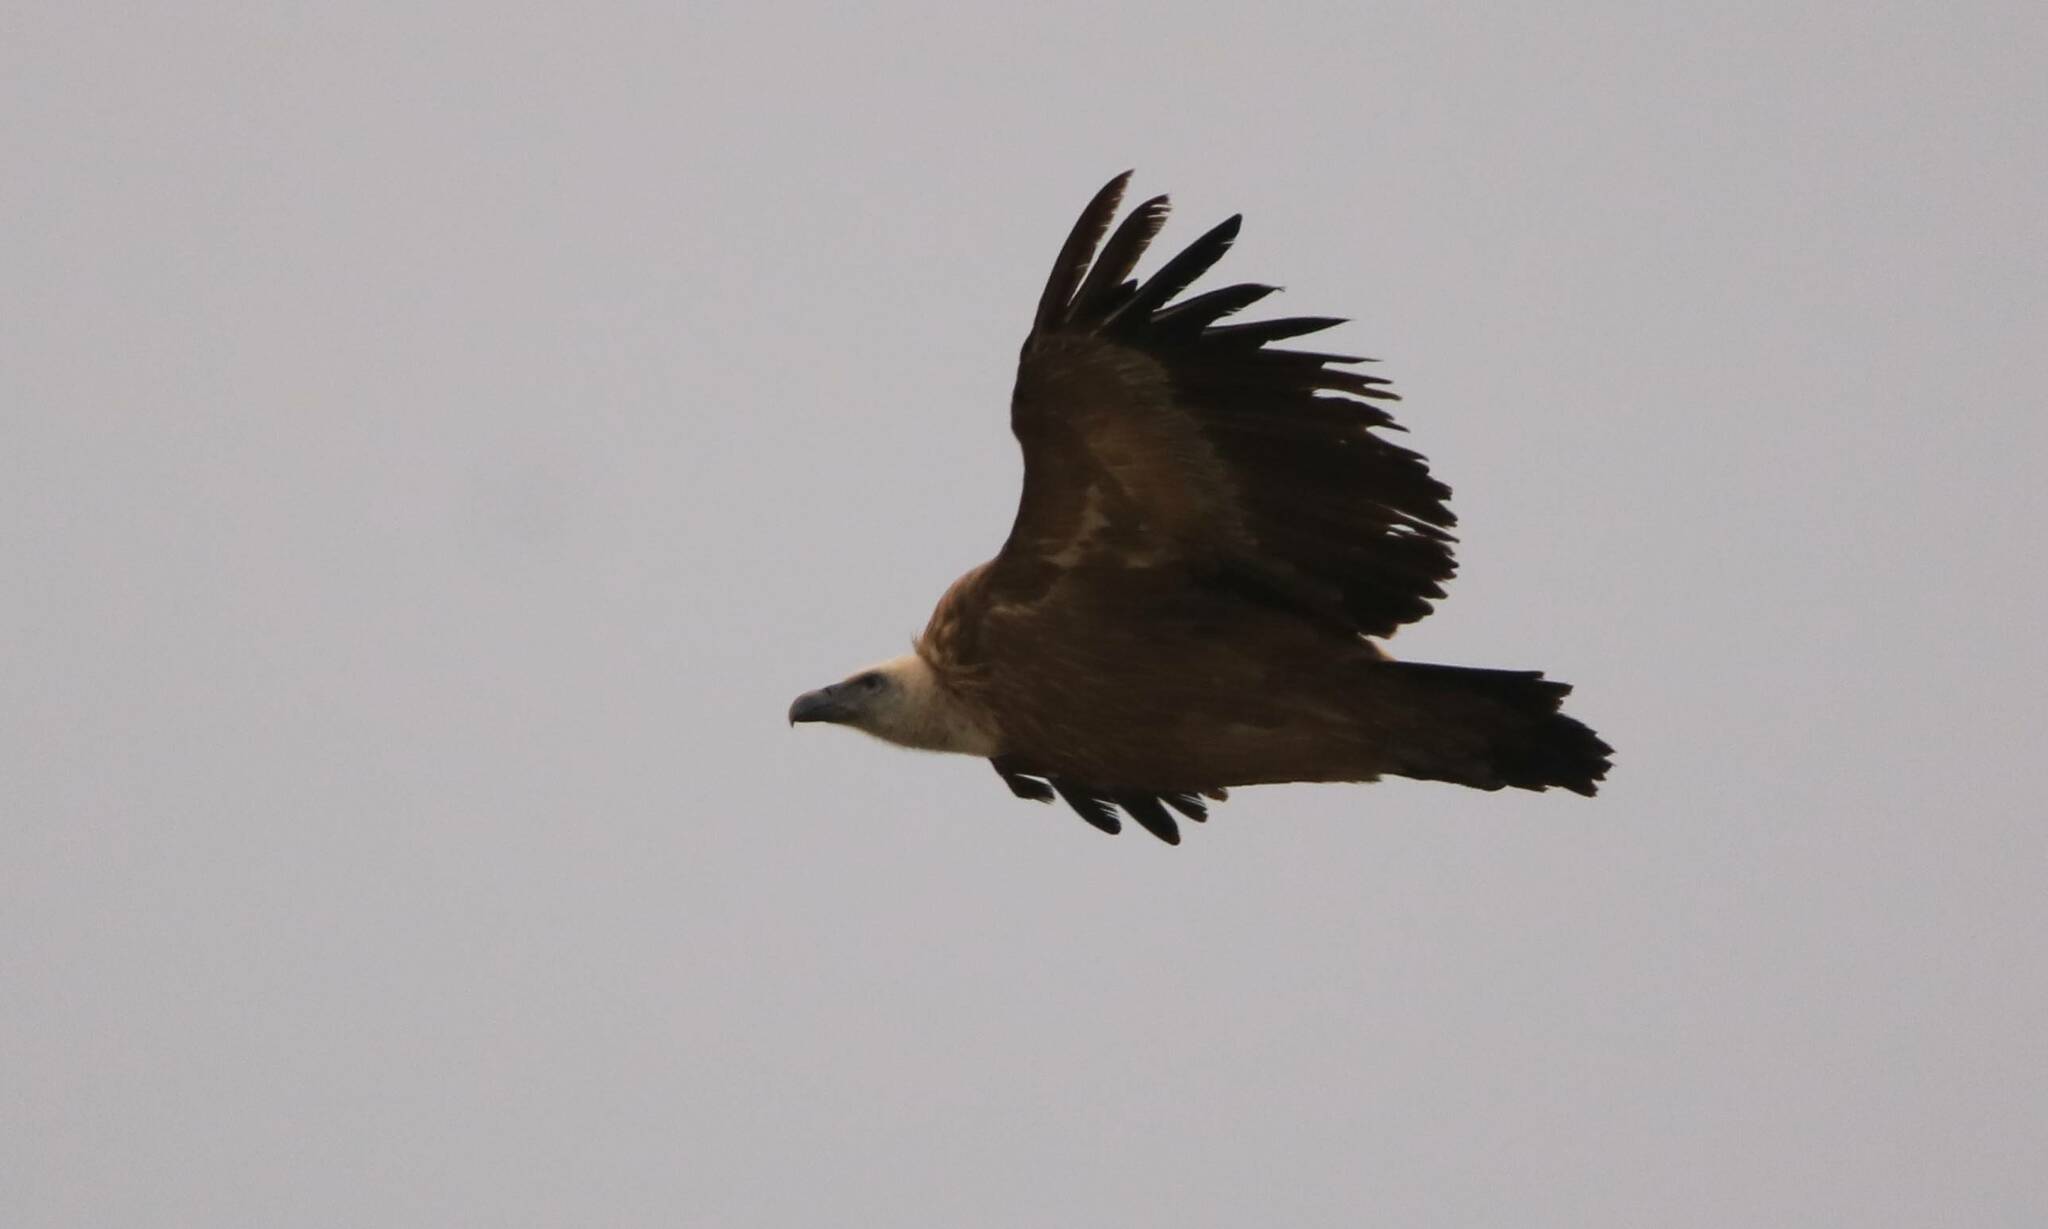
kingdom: Animalia
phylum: Chordata
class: Aves
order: Accipitriformes
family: Accipitridae
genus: Gyps
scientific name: Gyps fulvus
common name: Griffon vulture
